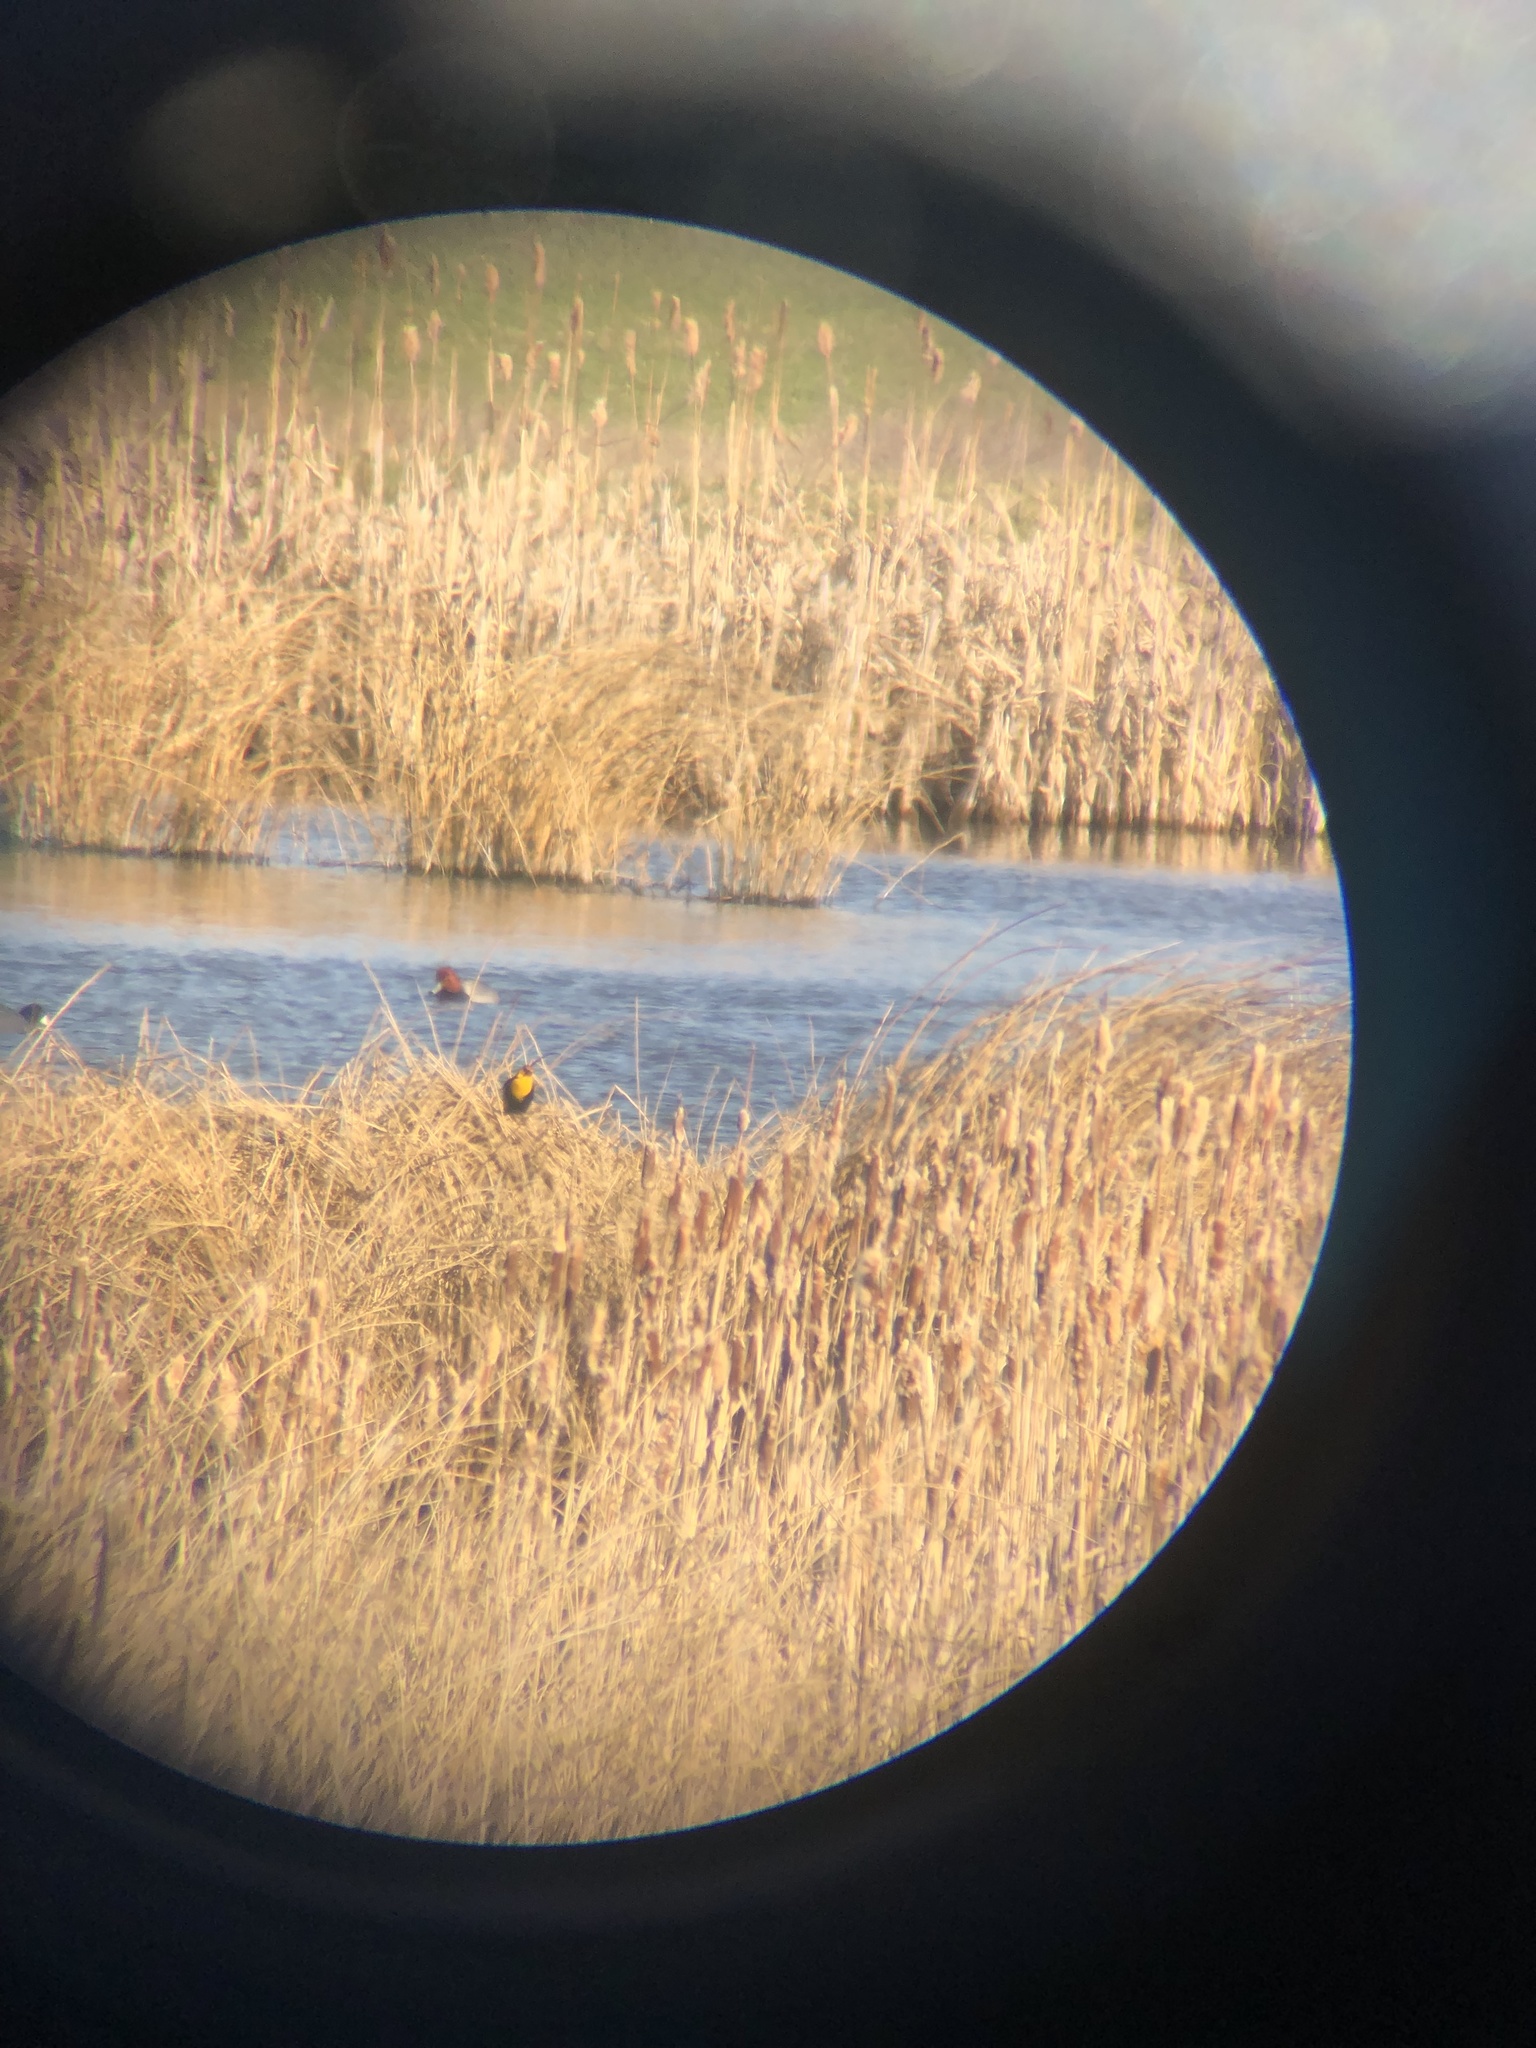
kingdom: Animalia
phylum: Chordata
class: Aves
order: Anseriformes
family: Anatidae
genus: Aythya
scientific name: Aythya americana
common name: Redhead
